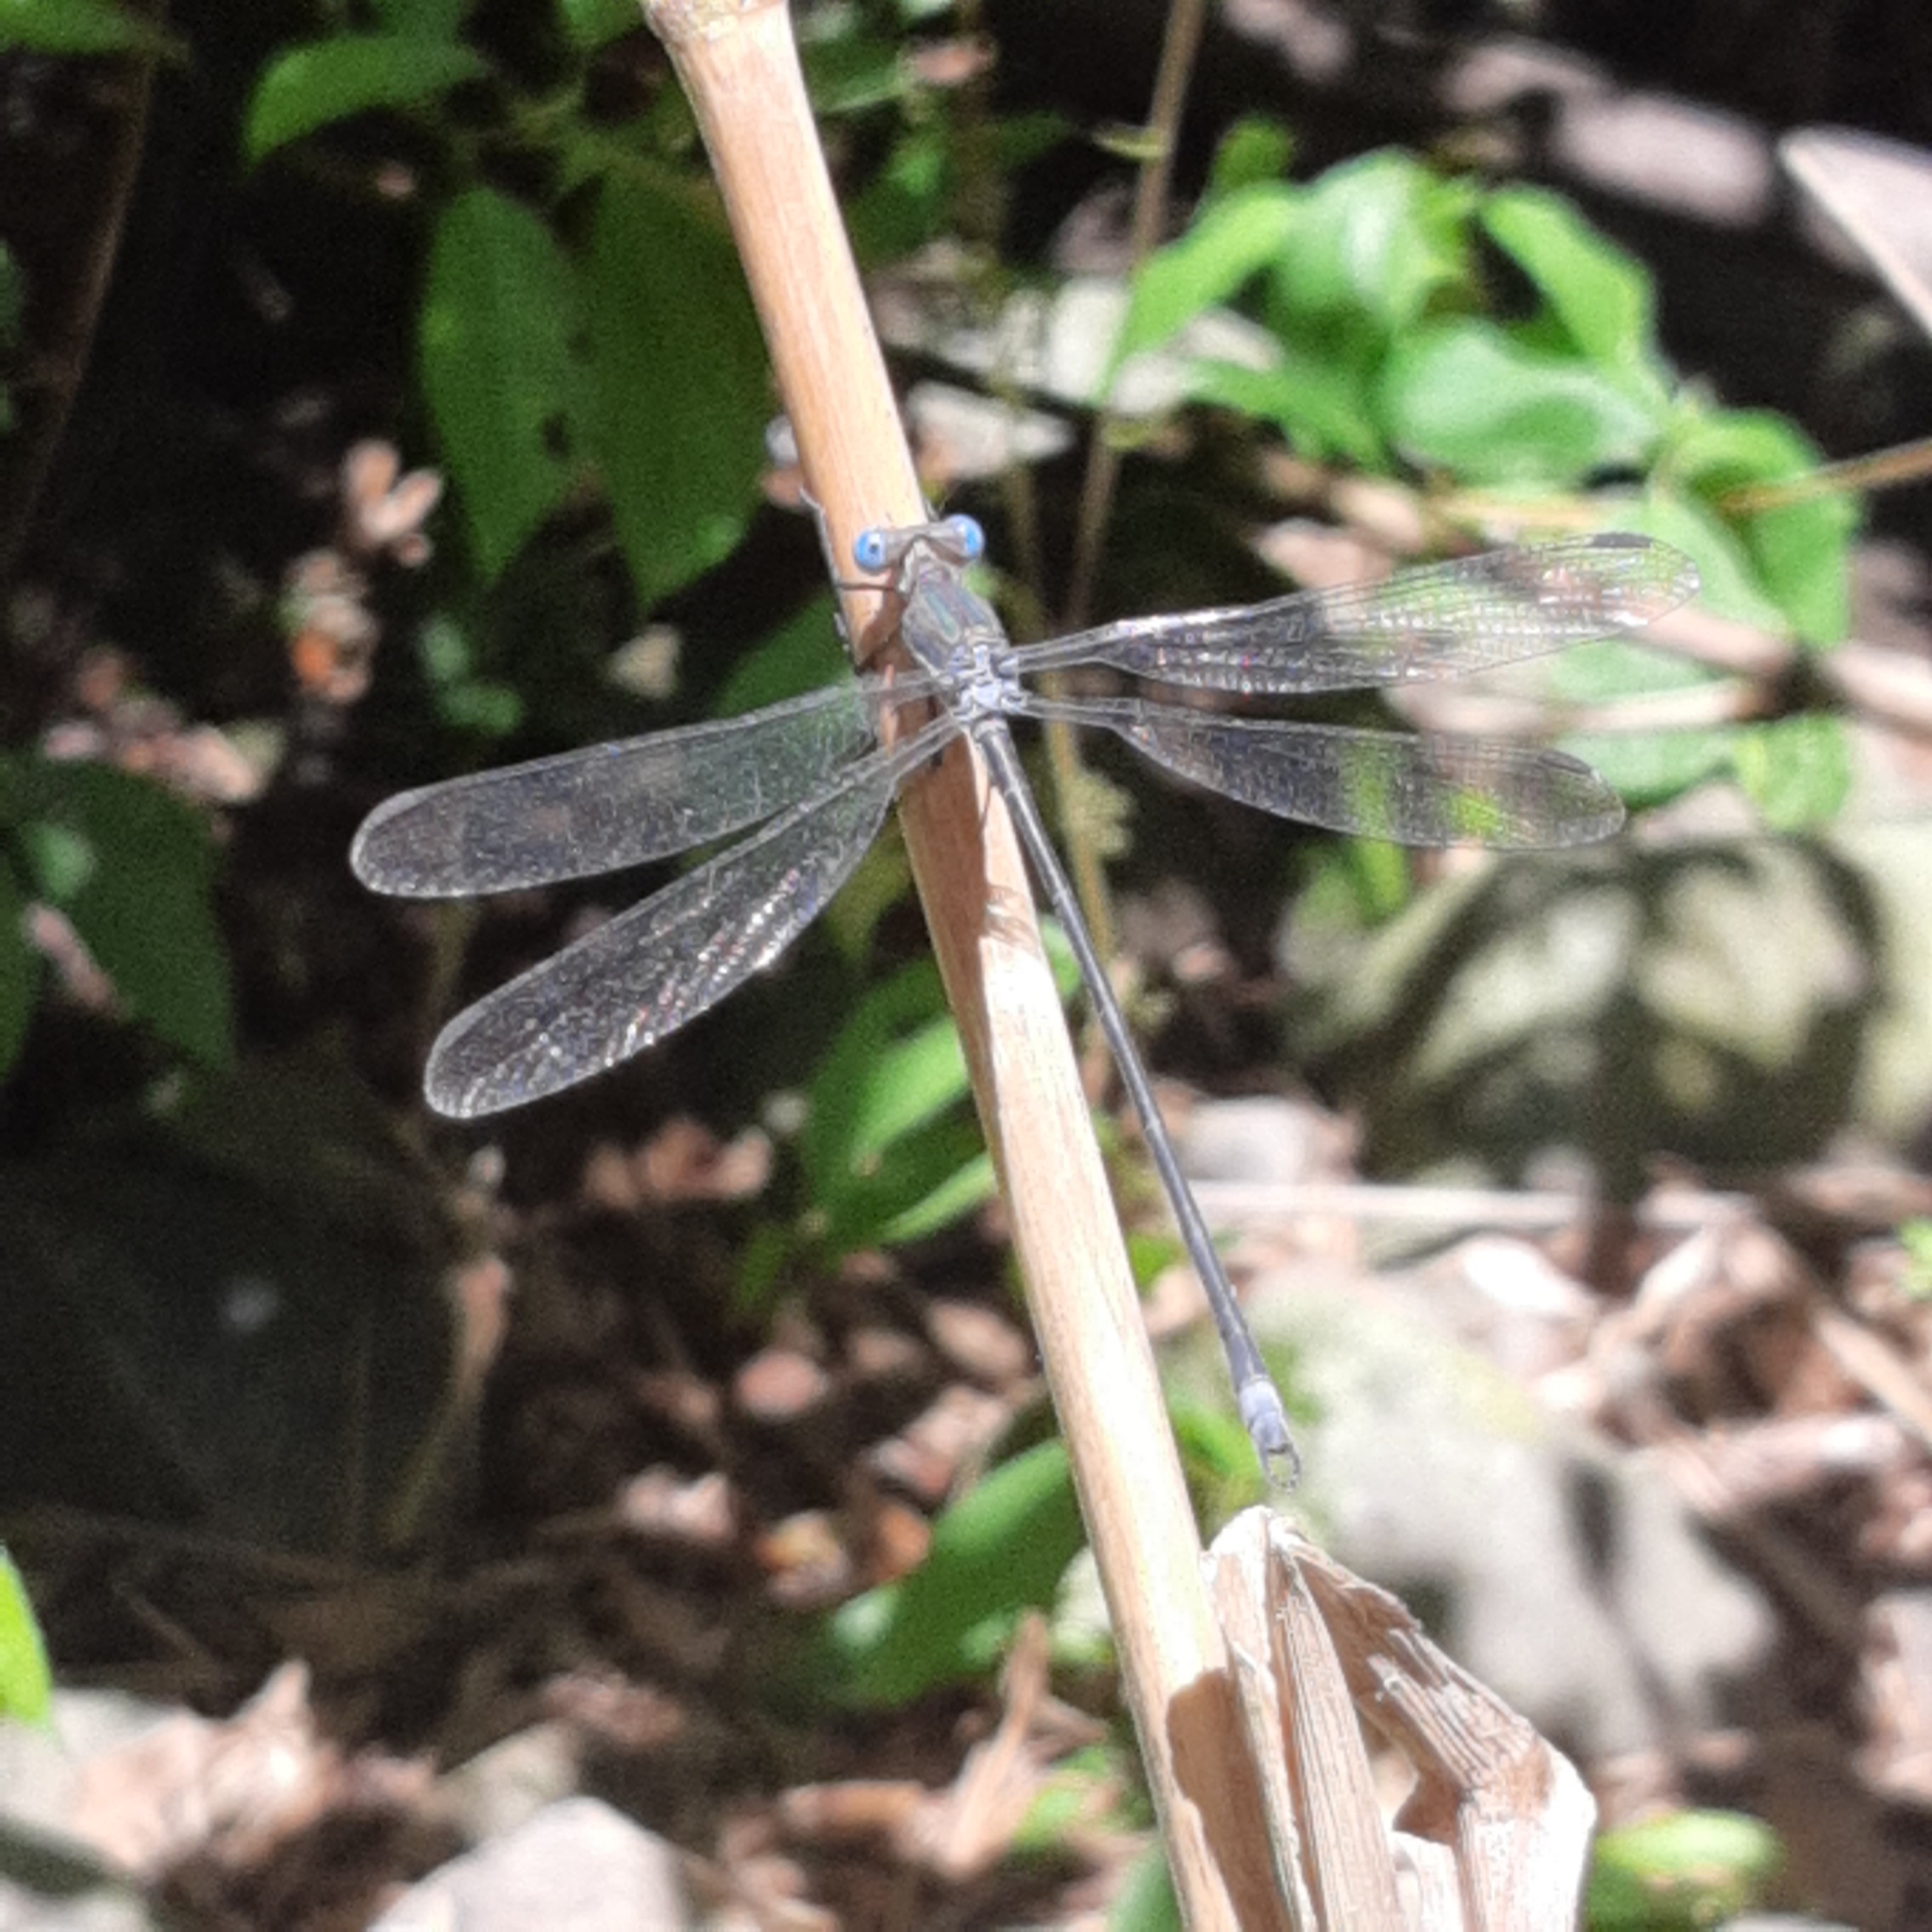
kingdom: Animalia
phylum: Arthropoda
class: Insecta
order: Odonata
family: Lestidae
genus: Archilestes
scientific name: Archilestes grandis
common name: Great spreadwing
